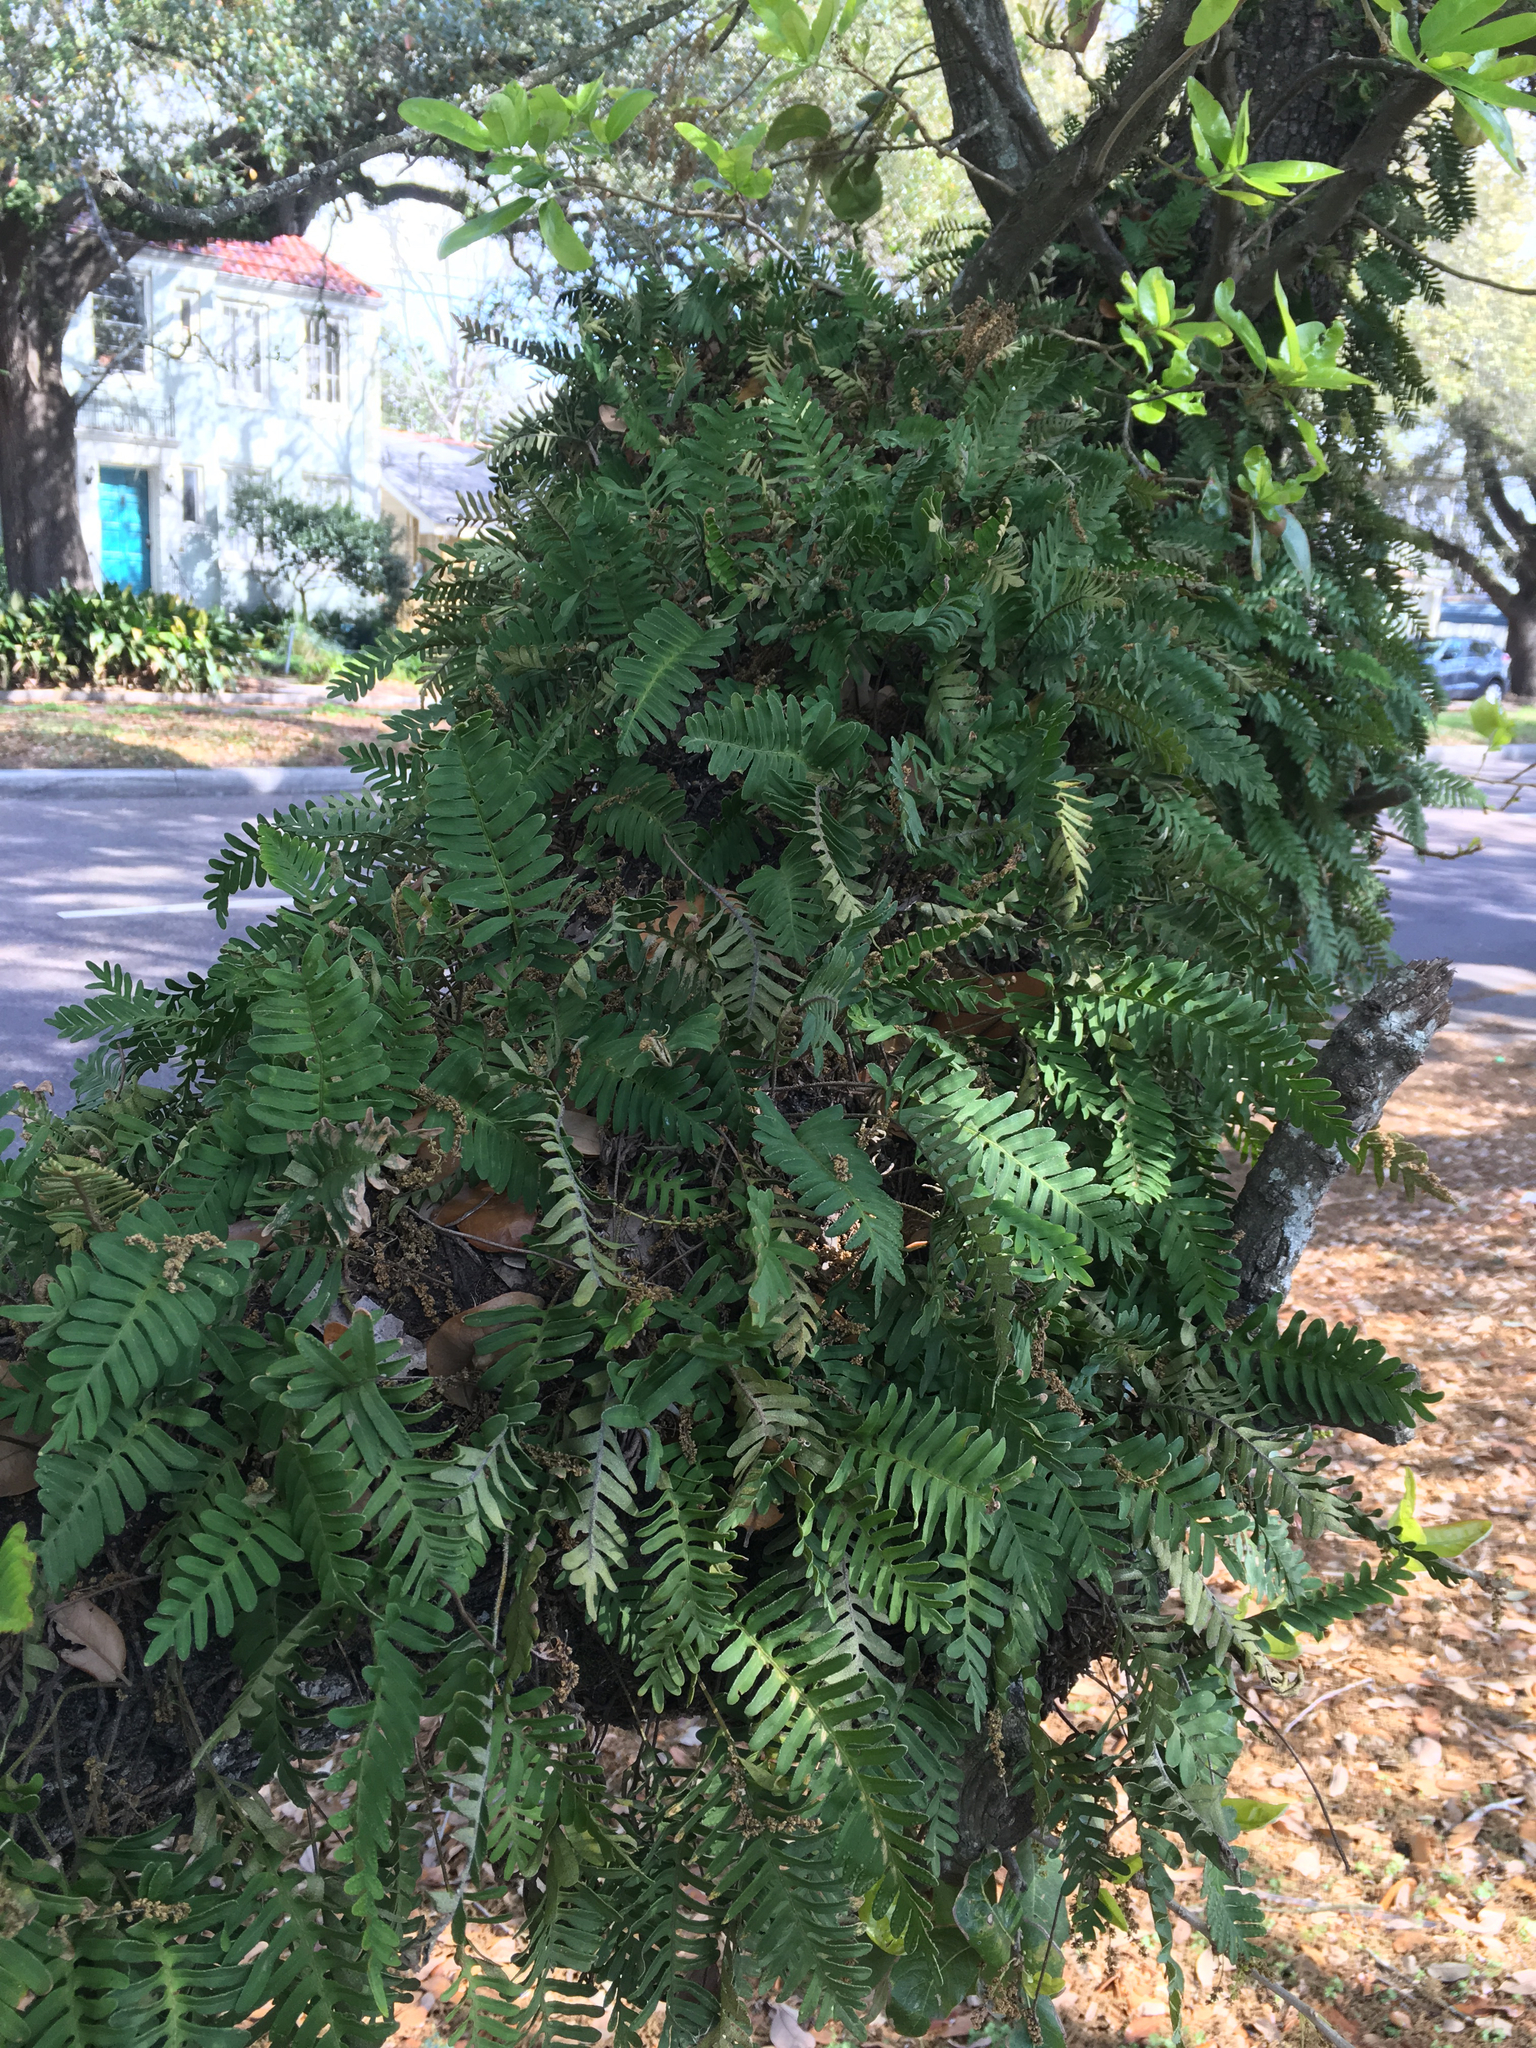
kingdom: Plantae
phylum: Tracheophyta
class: Polypodiopsida
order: Polypodiales
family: Polypodiaceae
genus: Pleopeltis
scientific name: Pleopeltis michauxiana
